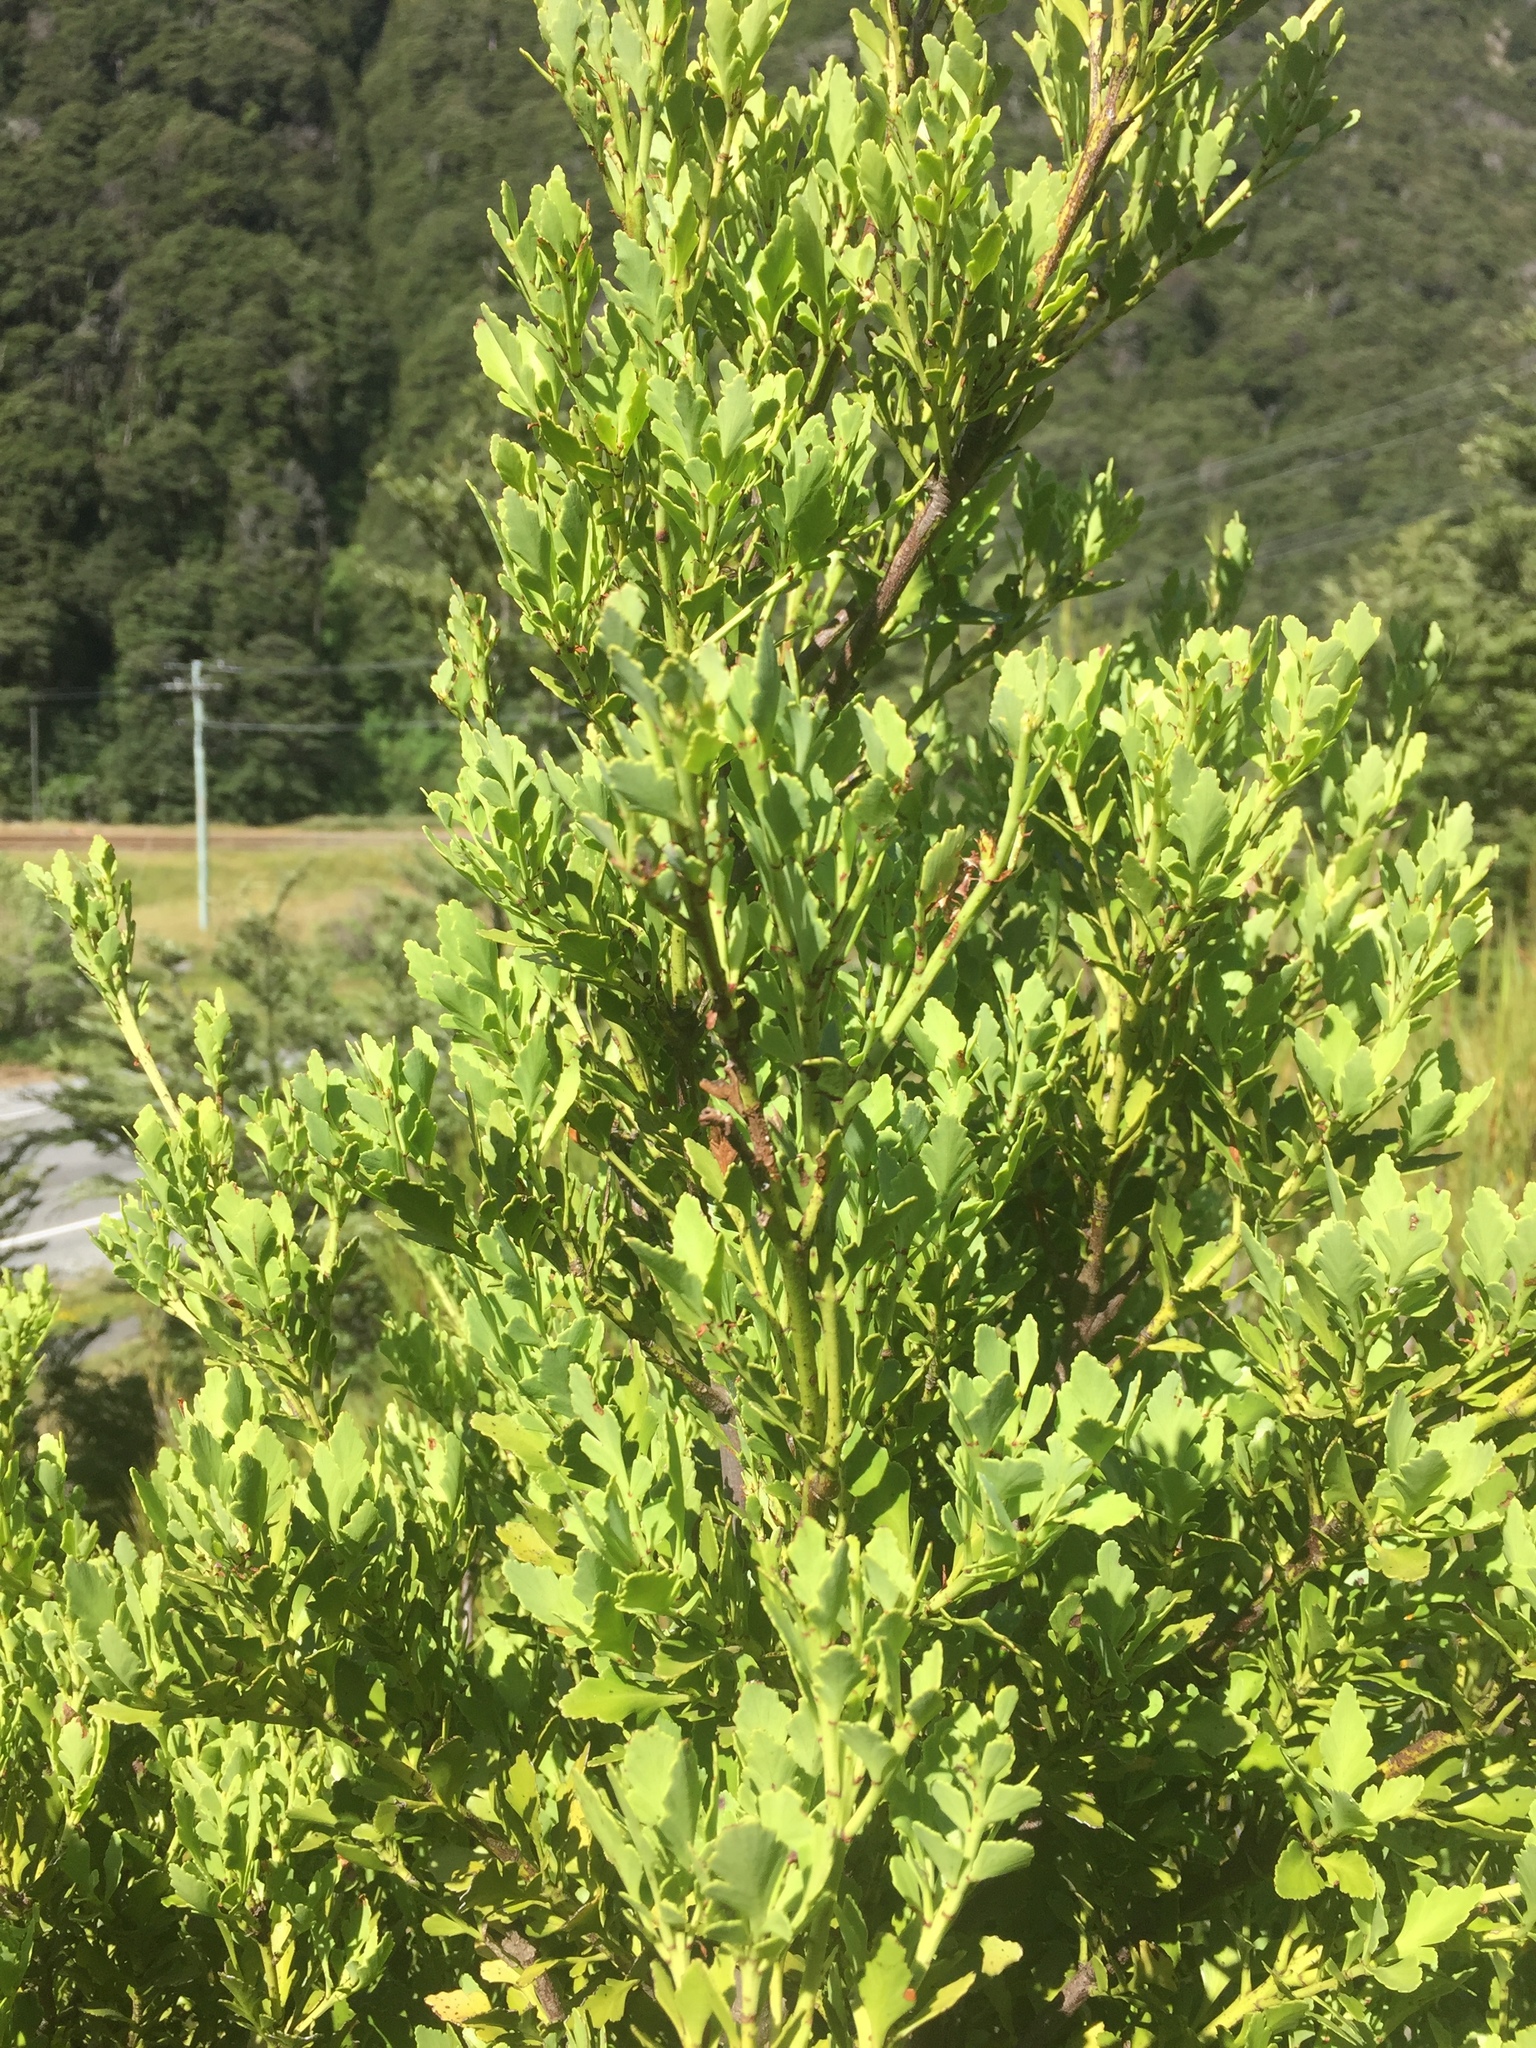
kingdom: Plantae
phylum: Tracheophyta
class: Pinopsida
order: Pinales
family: Phyllocladaceae
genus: Phyllocladus
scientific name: Phyllocladus trichomanoides
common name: Celery pine
